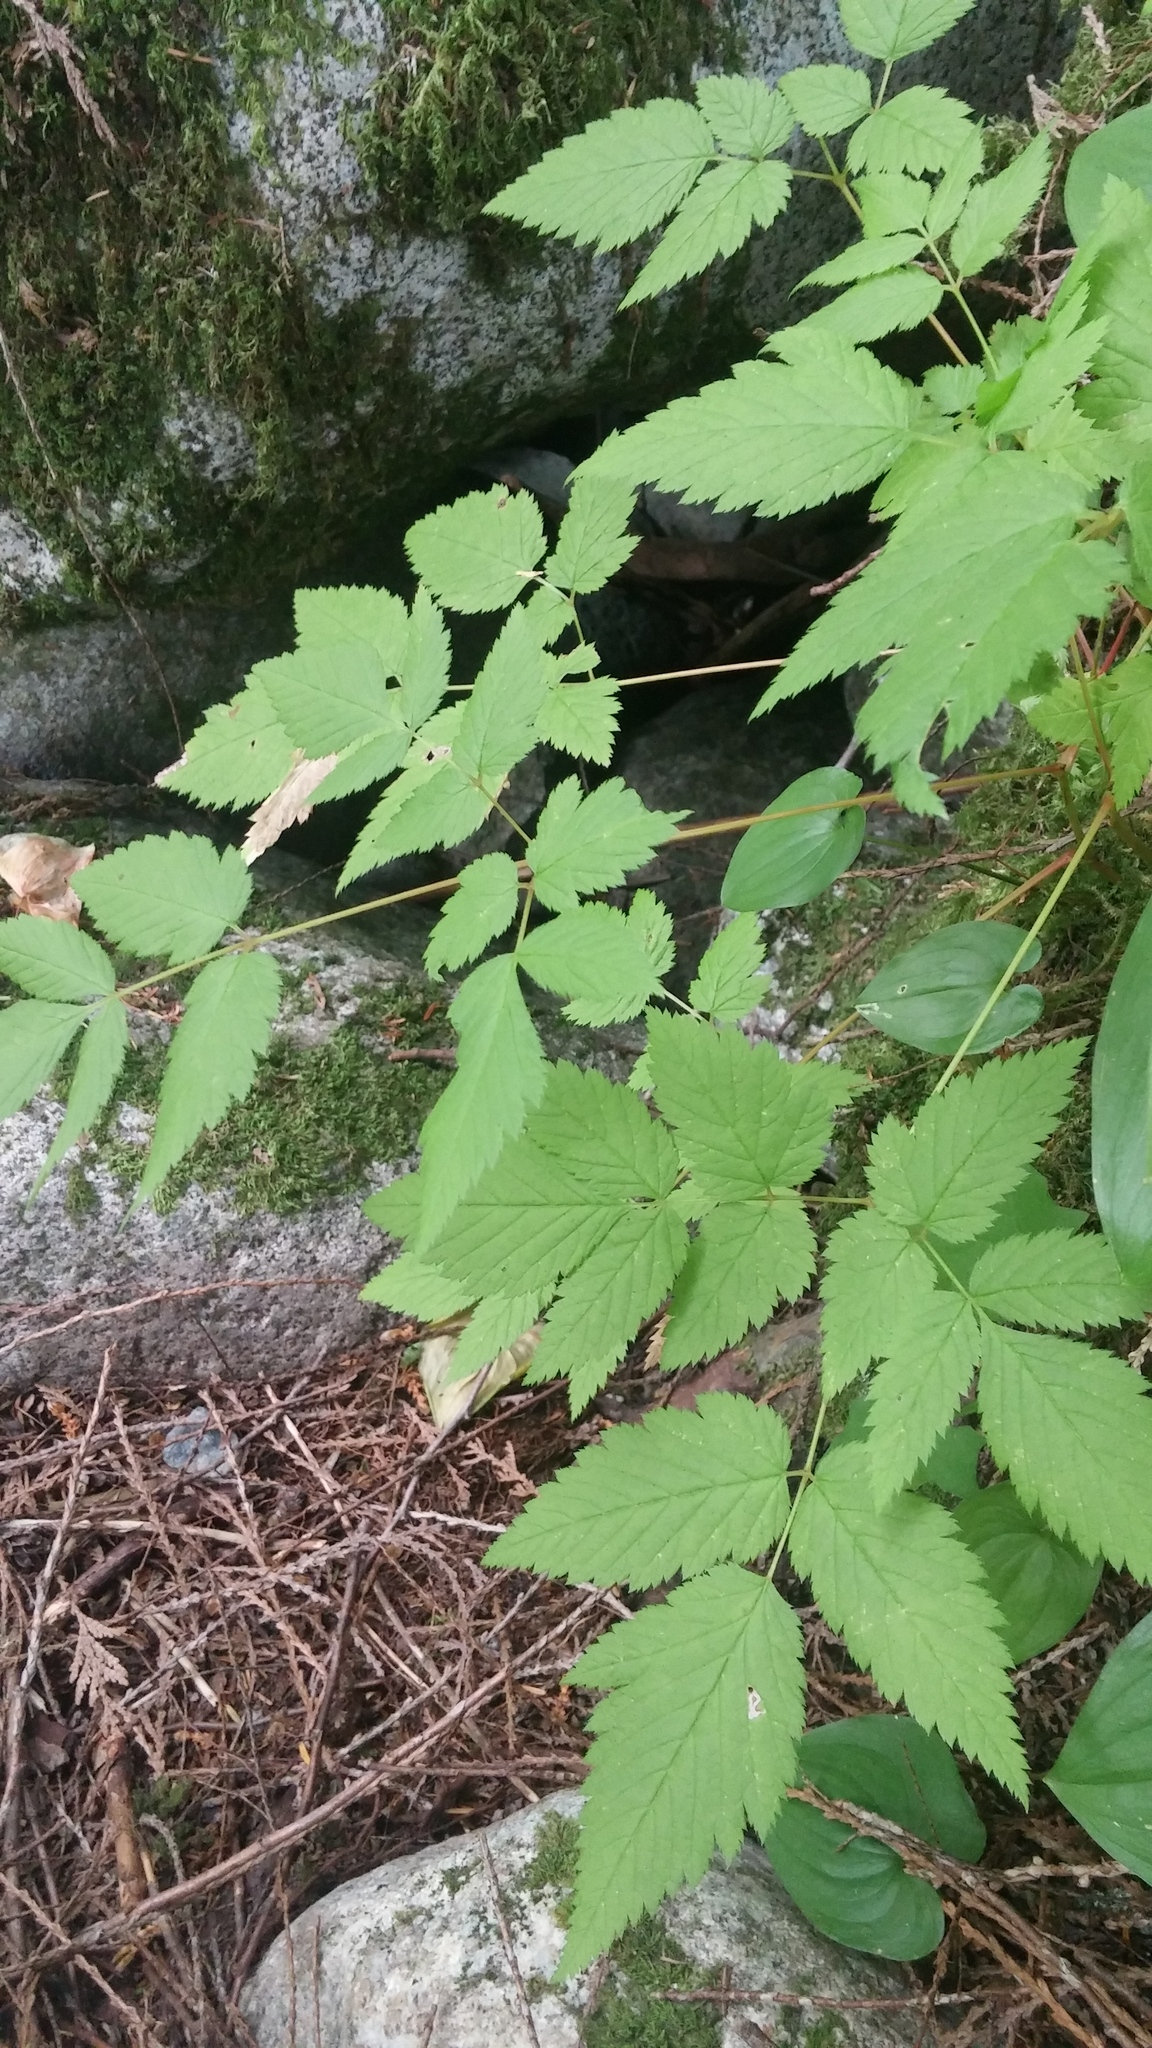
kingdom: Plantae
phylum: Tracheophyta
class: Magnoliopsida
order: Rosales
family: Rosaceae
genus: Rubus
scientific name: Rubus spectabilis
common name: Salmonberry
